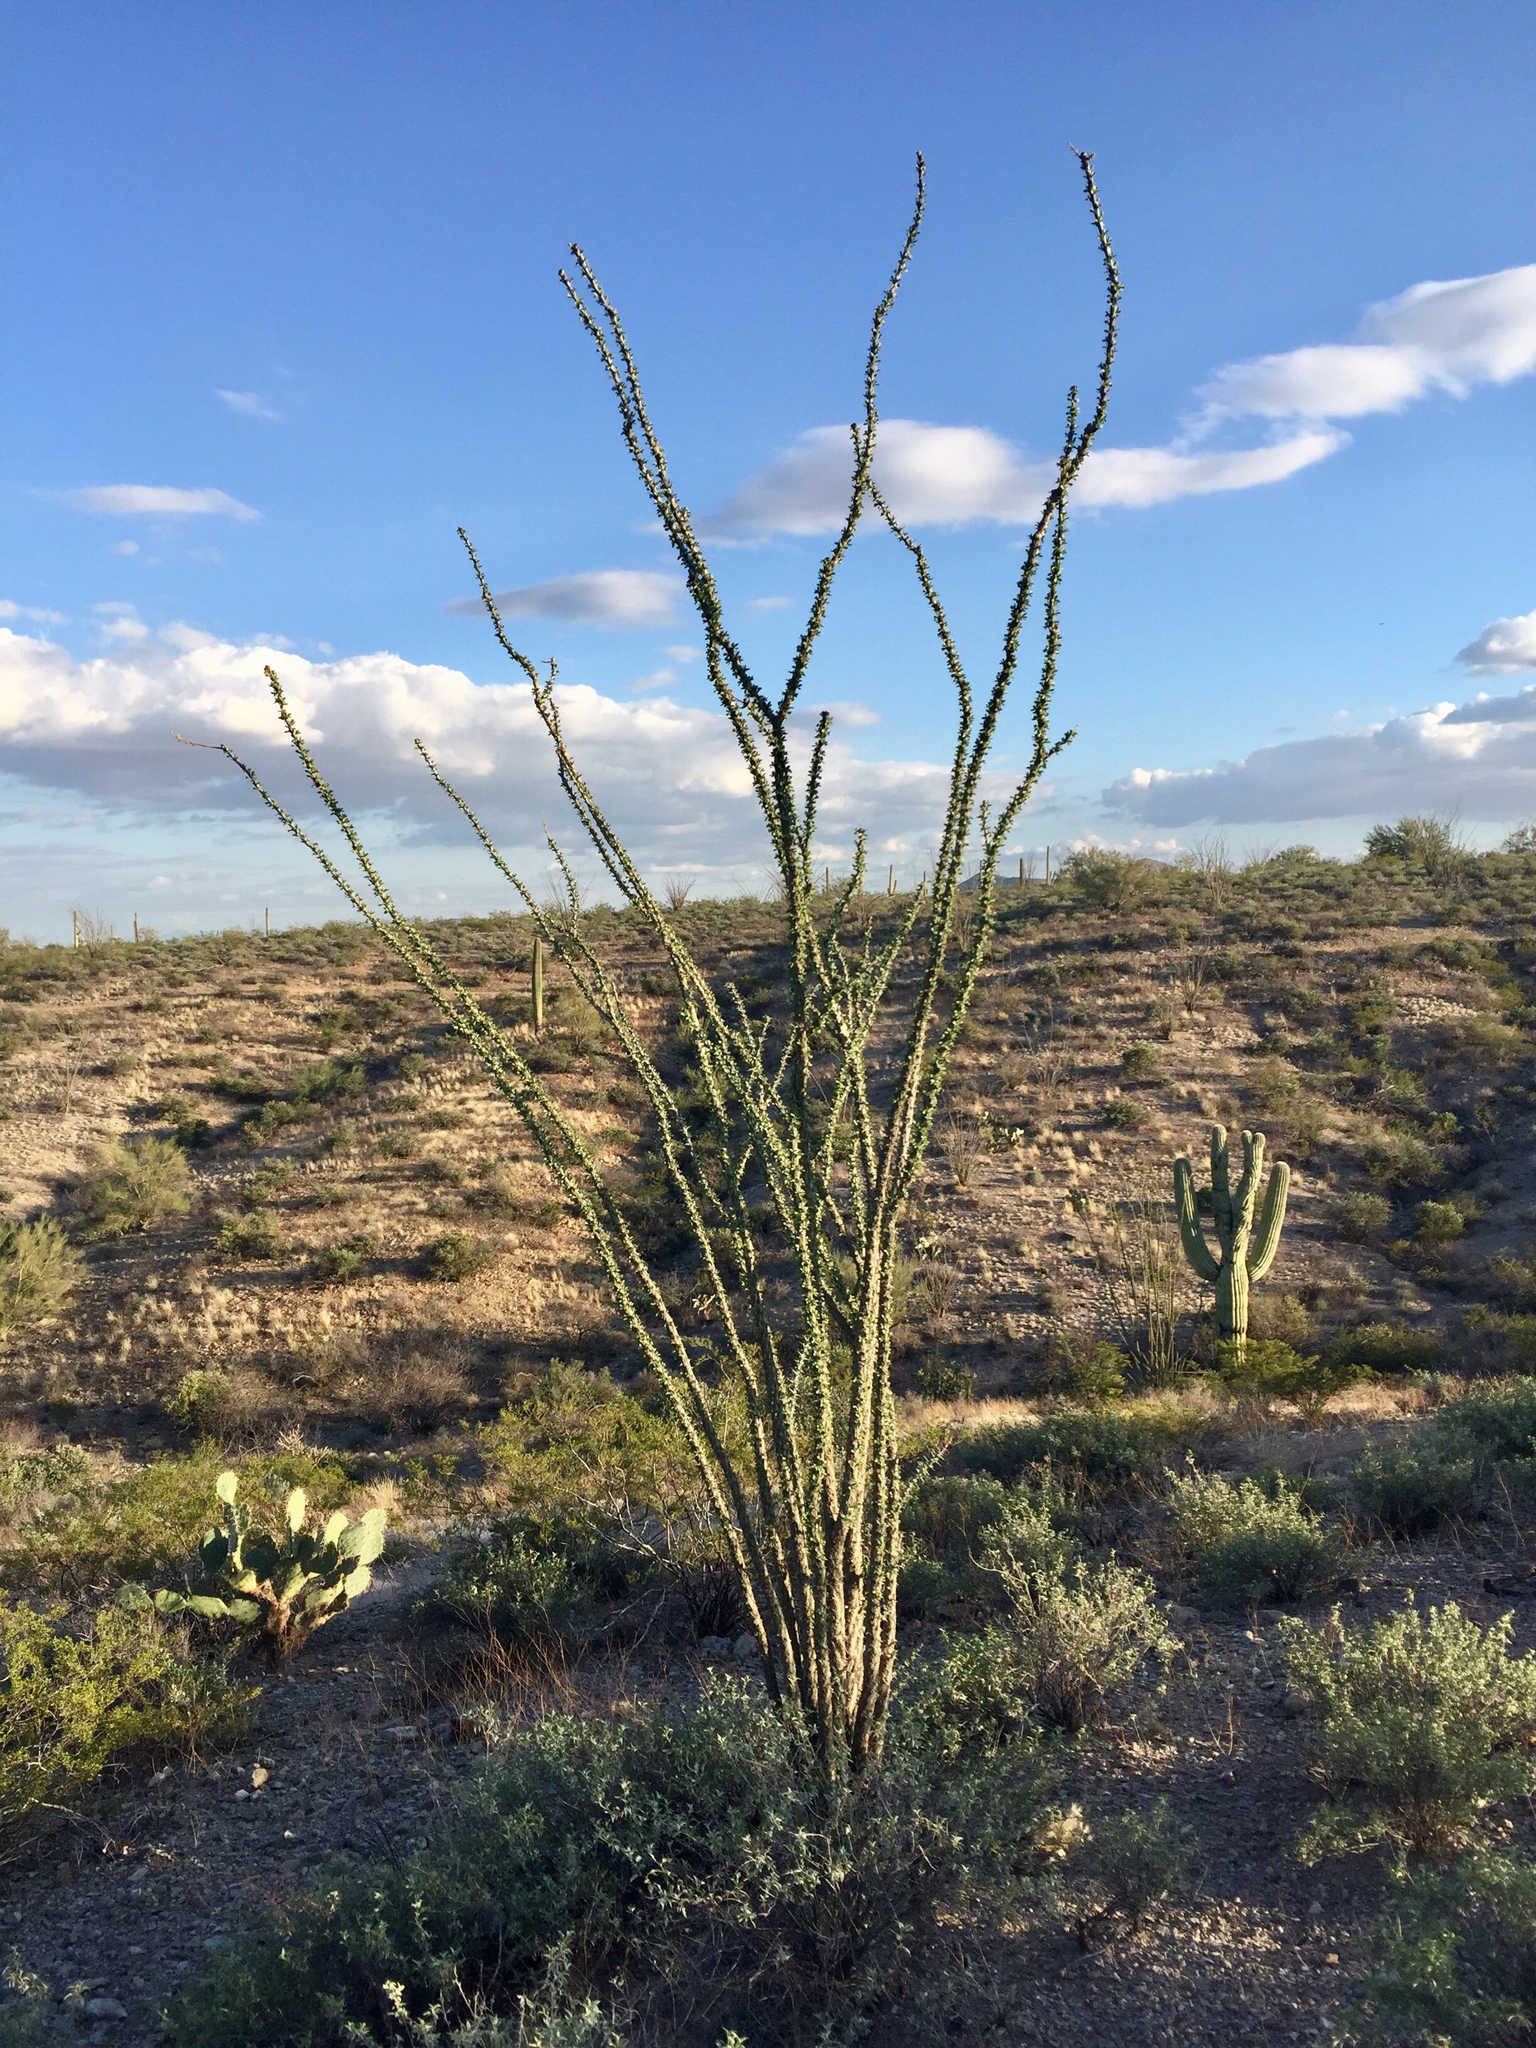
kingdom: Plantae
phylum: Tracheophyta
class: Magnoliopsida
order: Ericales
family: Fouquieriaceae
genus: Fouquieria
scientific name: Fouquieria splendens
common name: Vine-cactus
